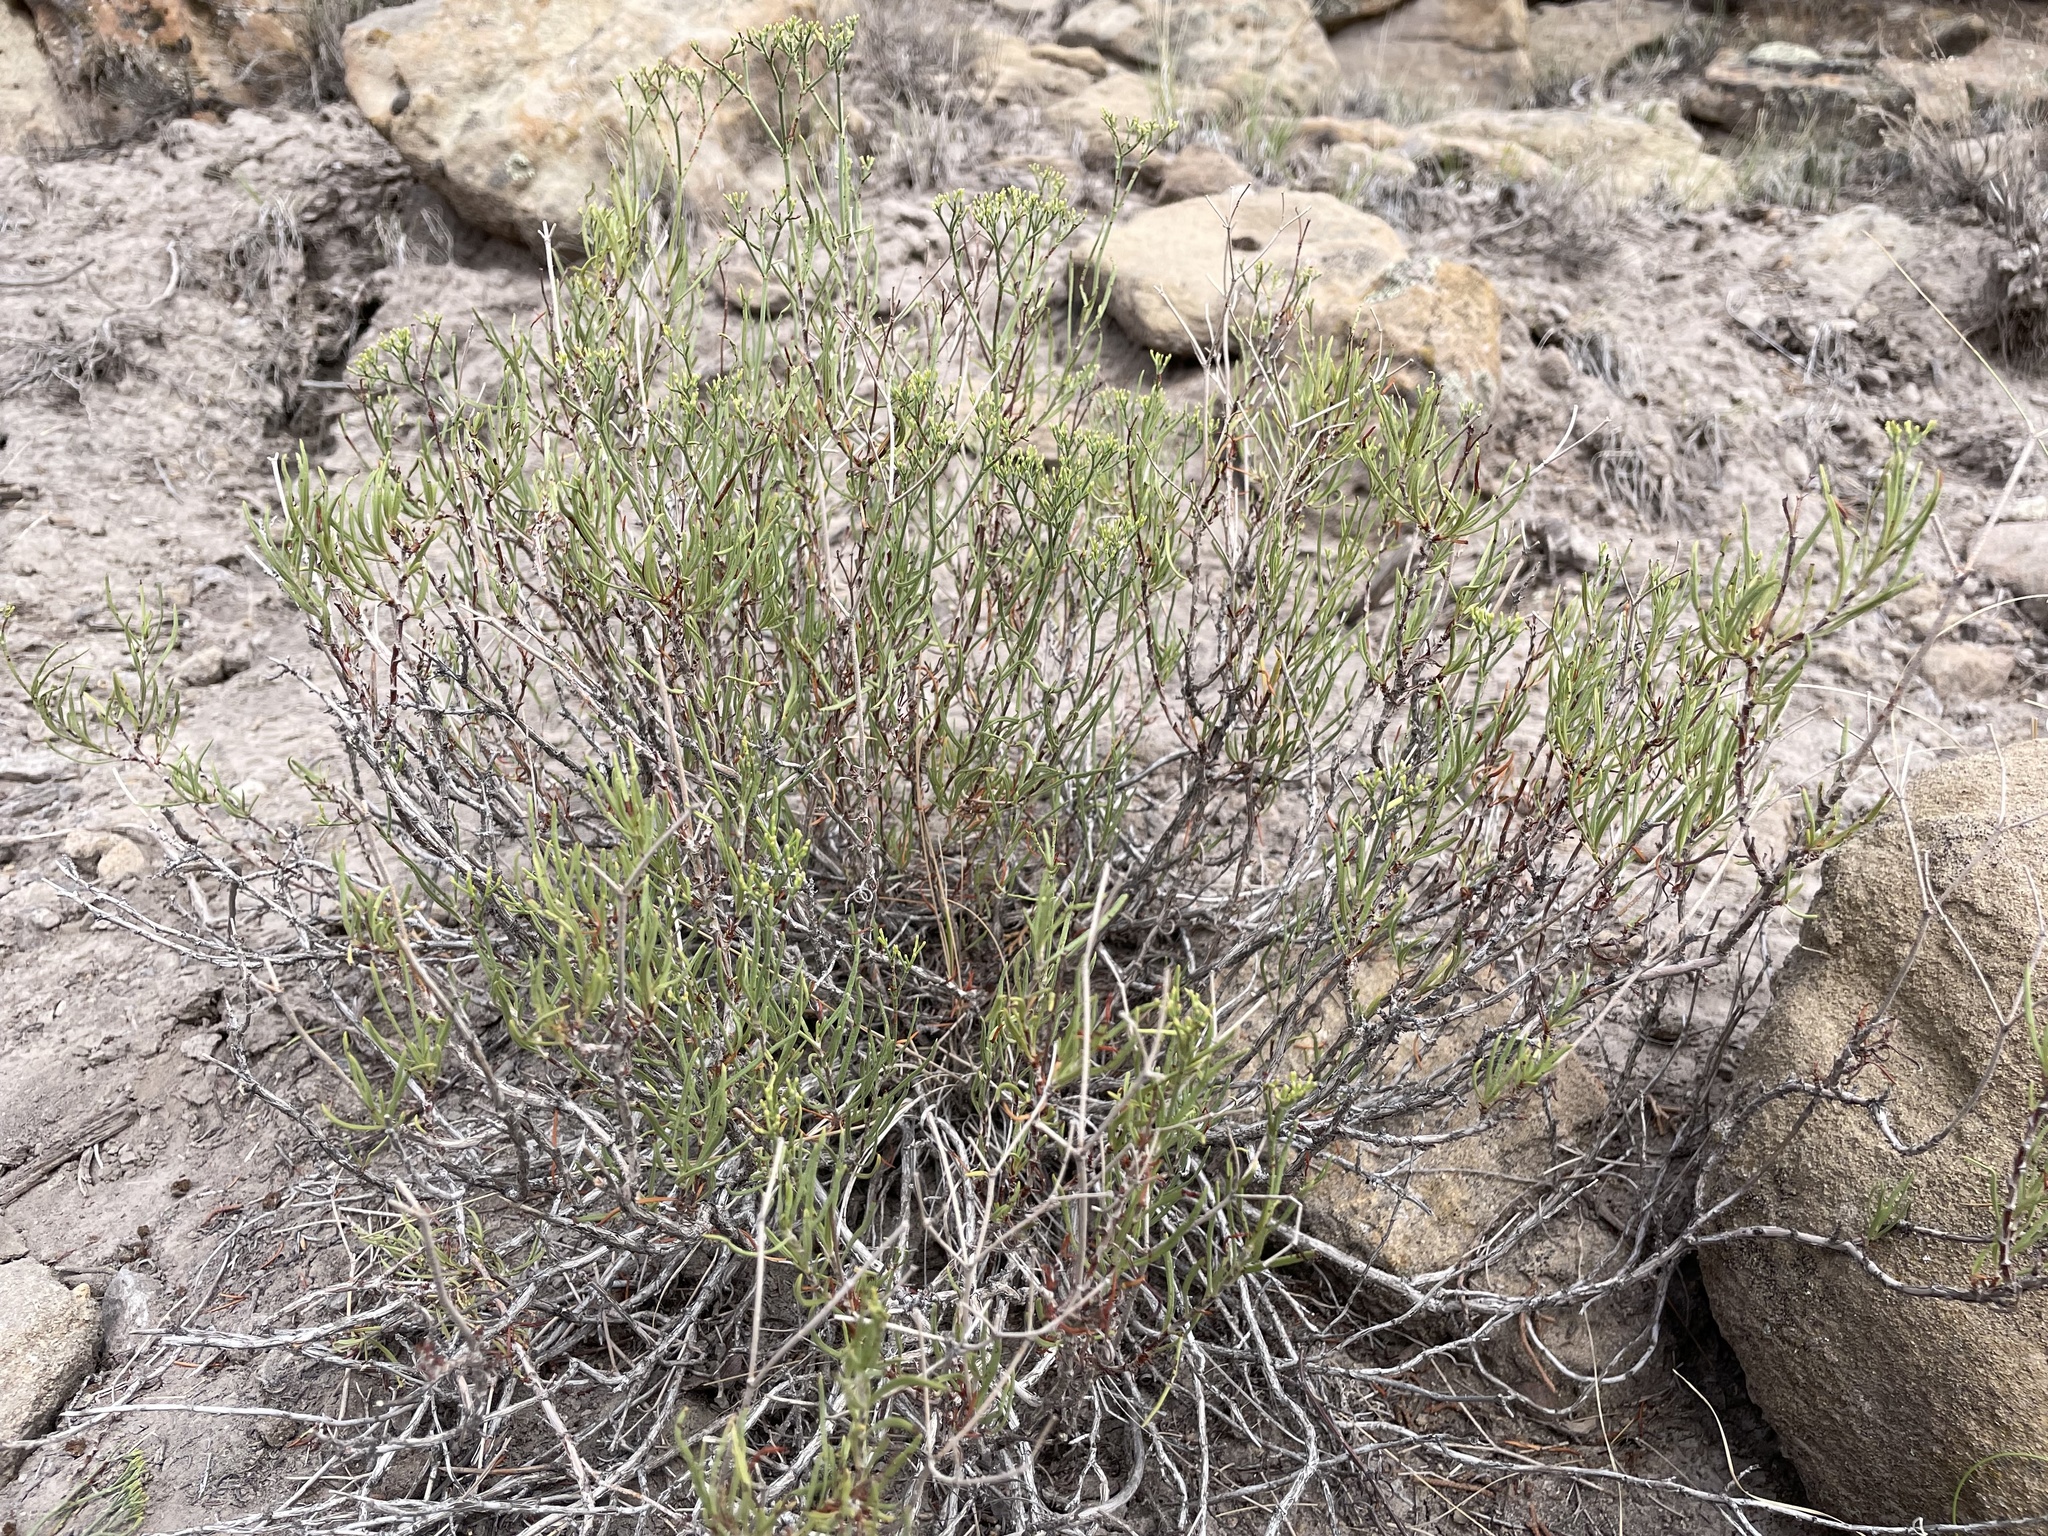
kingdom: Plantae
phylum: Tracheophyta
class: Magnoliopsida
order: Caryophyllales
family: Polygonaceae
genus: Eriogonum
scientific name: Eriogonum leptophyllum
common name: Slender-leaf wild buckwheat
